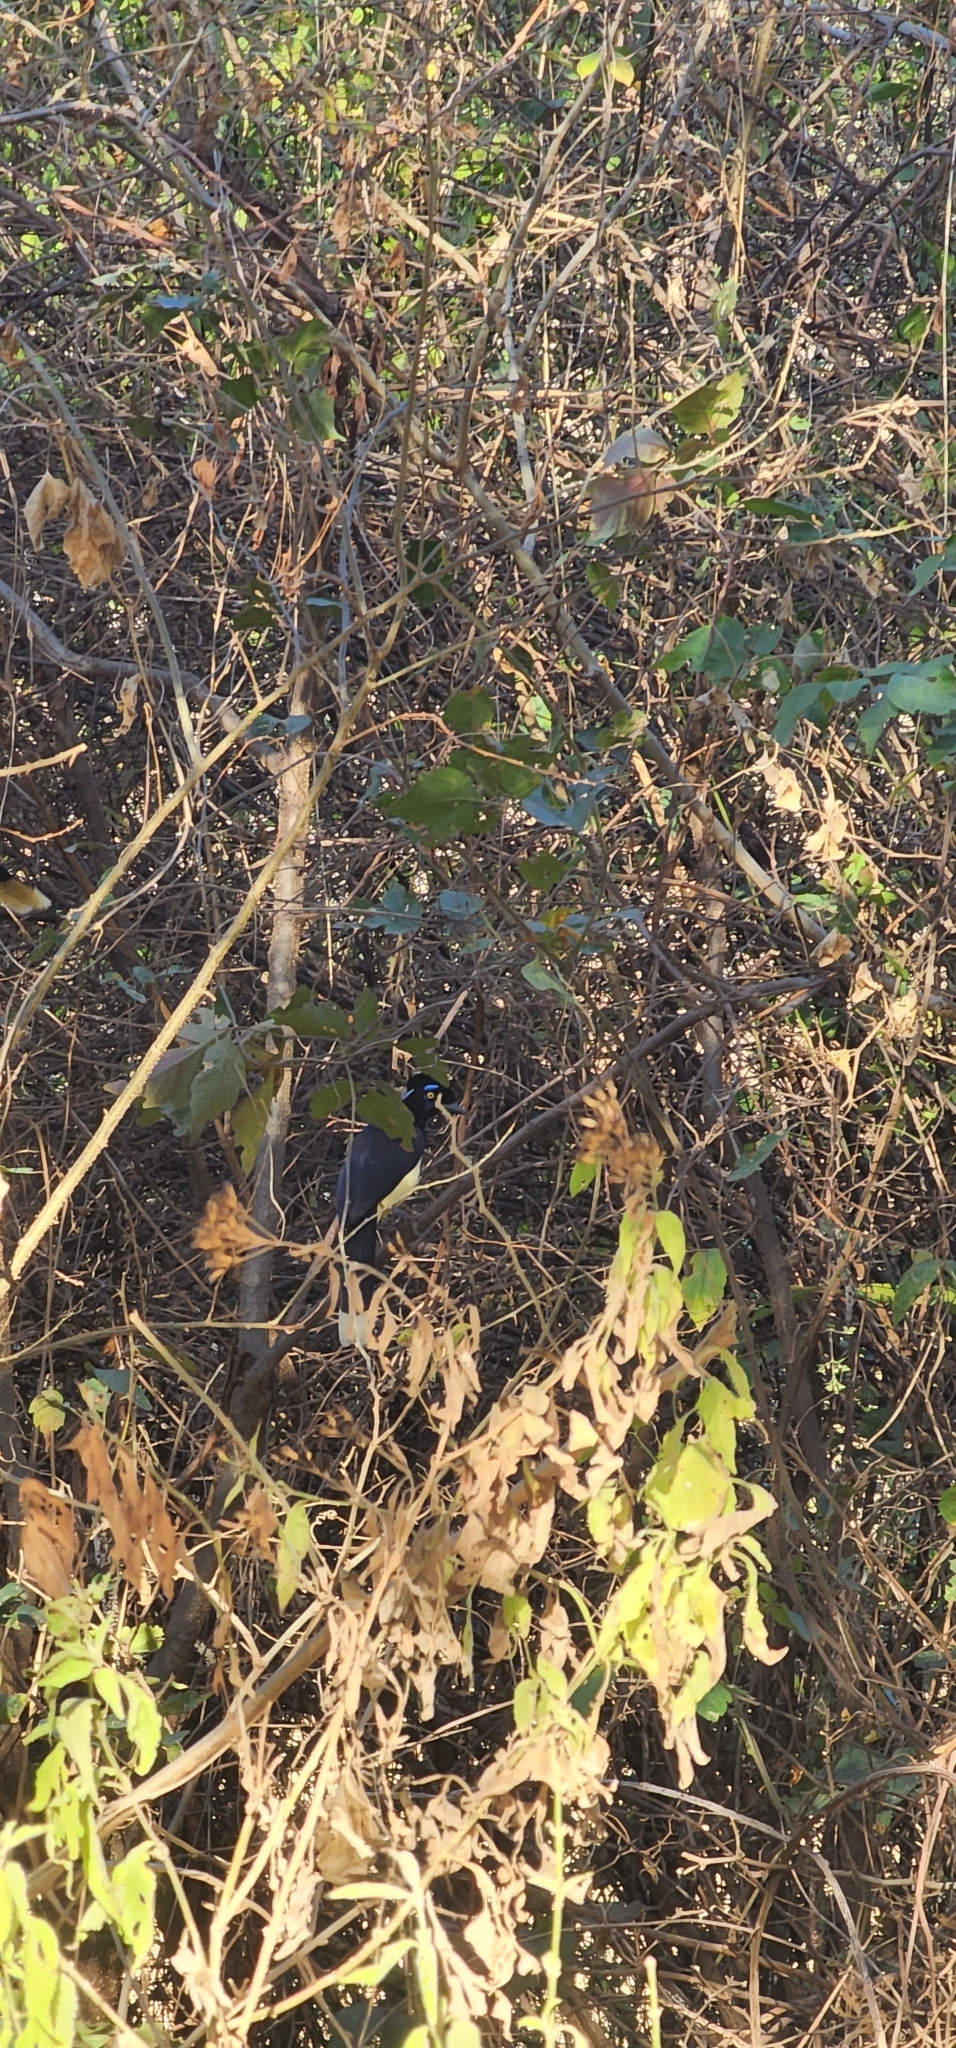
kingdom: Animalia
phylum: Chordata
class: Aves
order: Passeriformes
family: Corvidae
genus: Cyanocorax
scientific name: Cyanocorax chrysops
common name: Plush-crested jay
